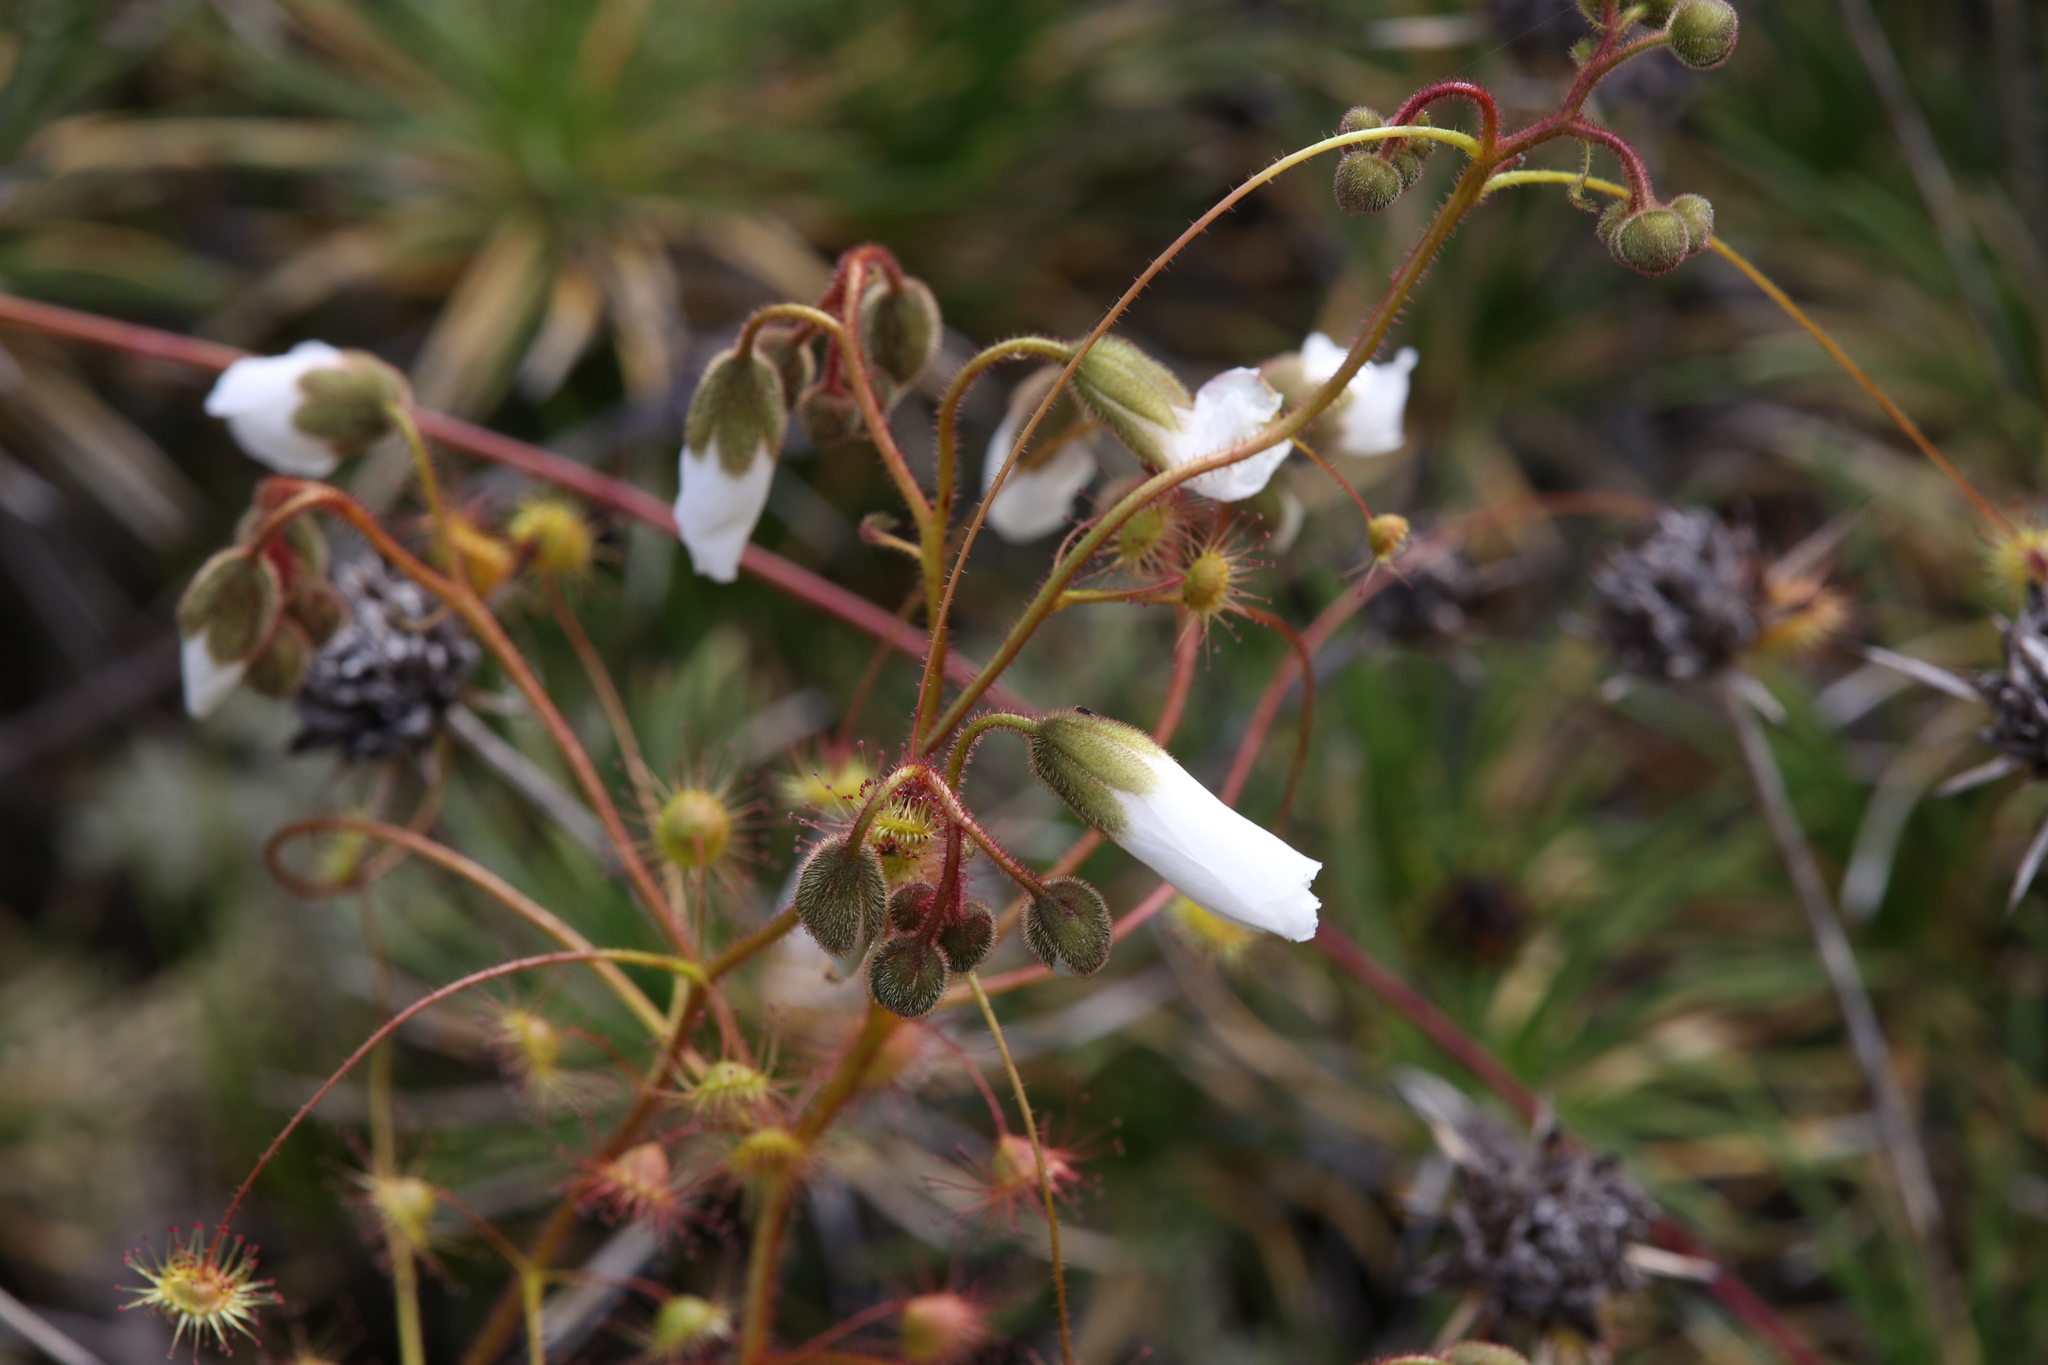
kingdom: Plantae
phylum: Tracheophyta
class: Magnoliopsida
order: Caryophyllales
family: Droseraceae
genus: Drosera
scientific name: Drosera macrantha
